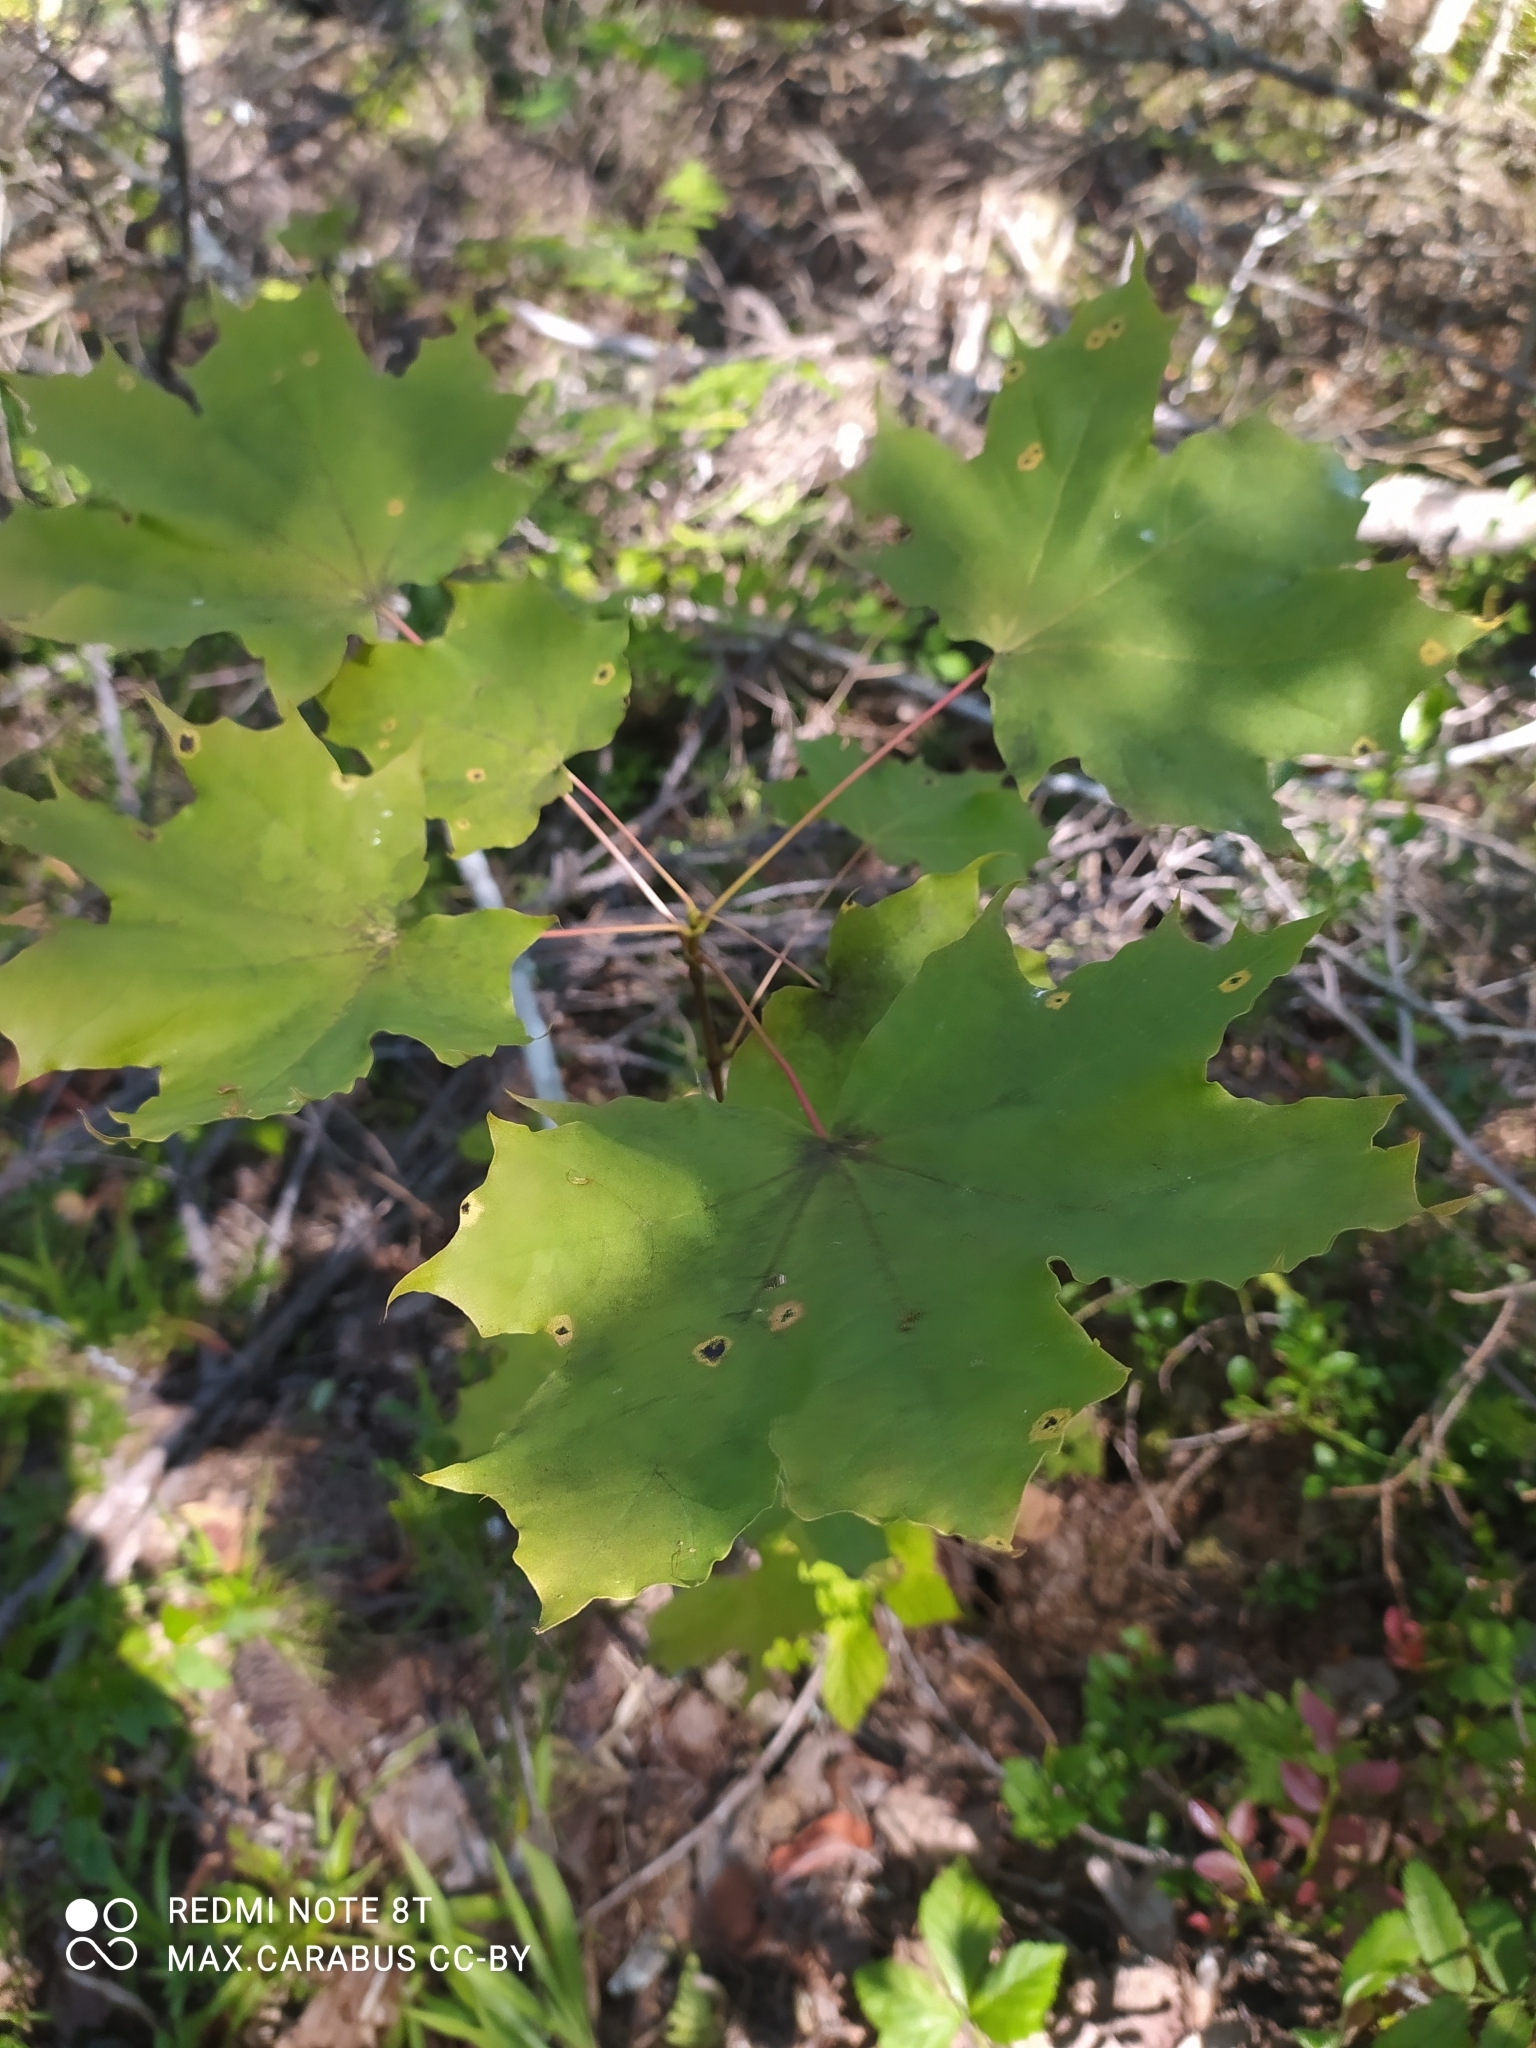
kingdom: Plantae
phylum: Tracheophyta
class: Magnoliopsida
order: Sapindales
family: Sapindaceae
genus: Acer
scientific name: Acer platanoides
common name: Norway maple
